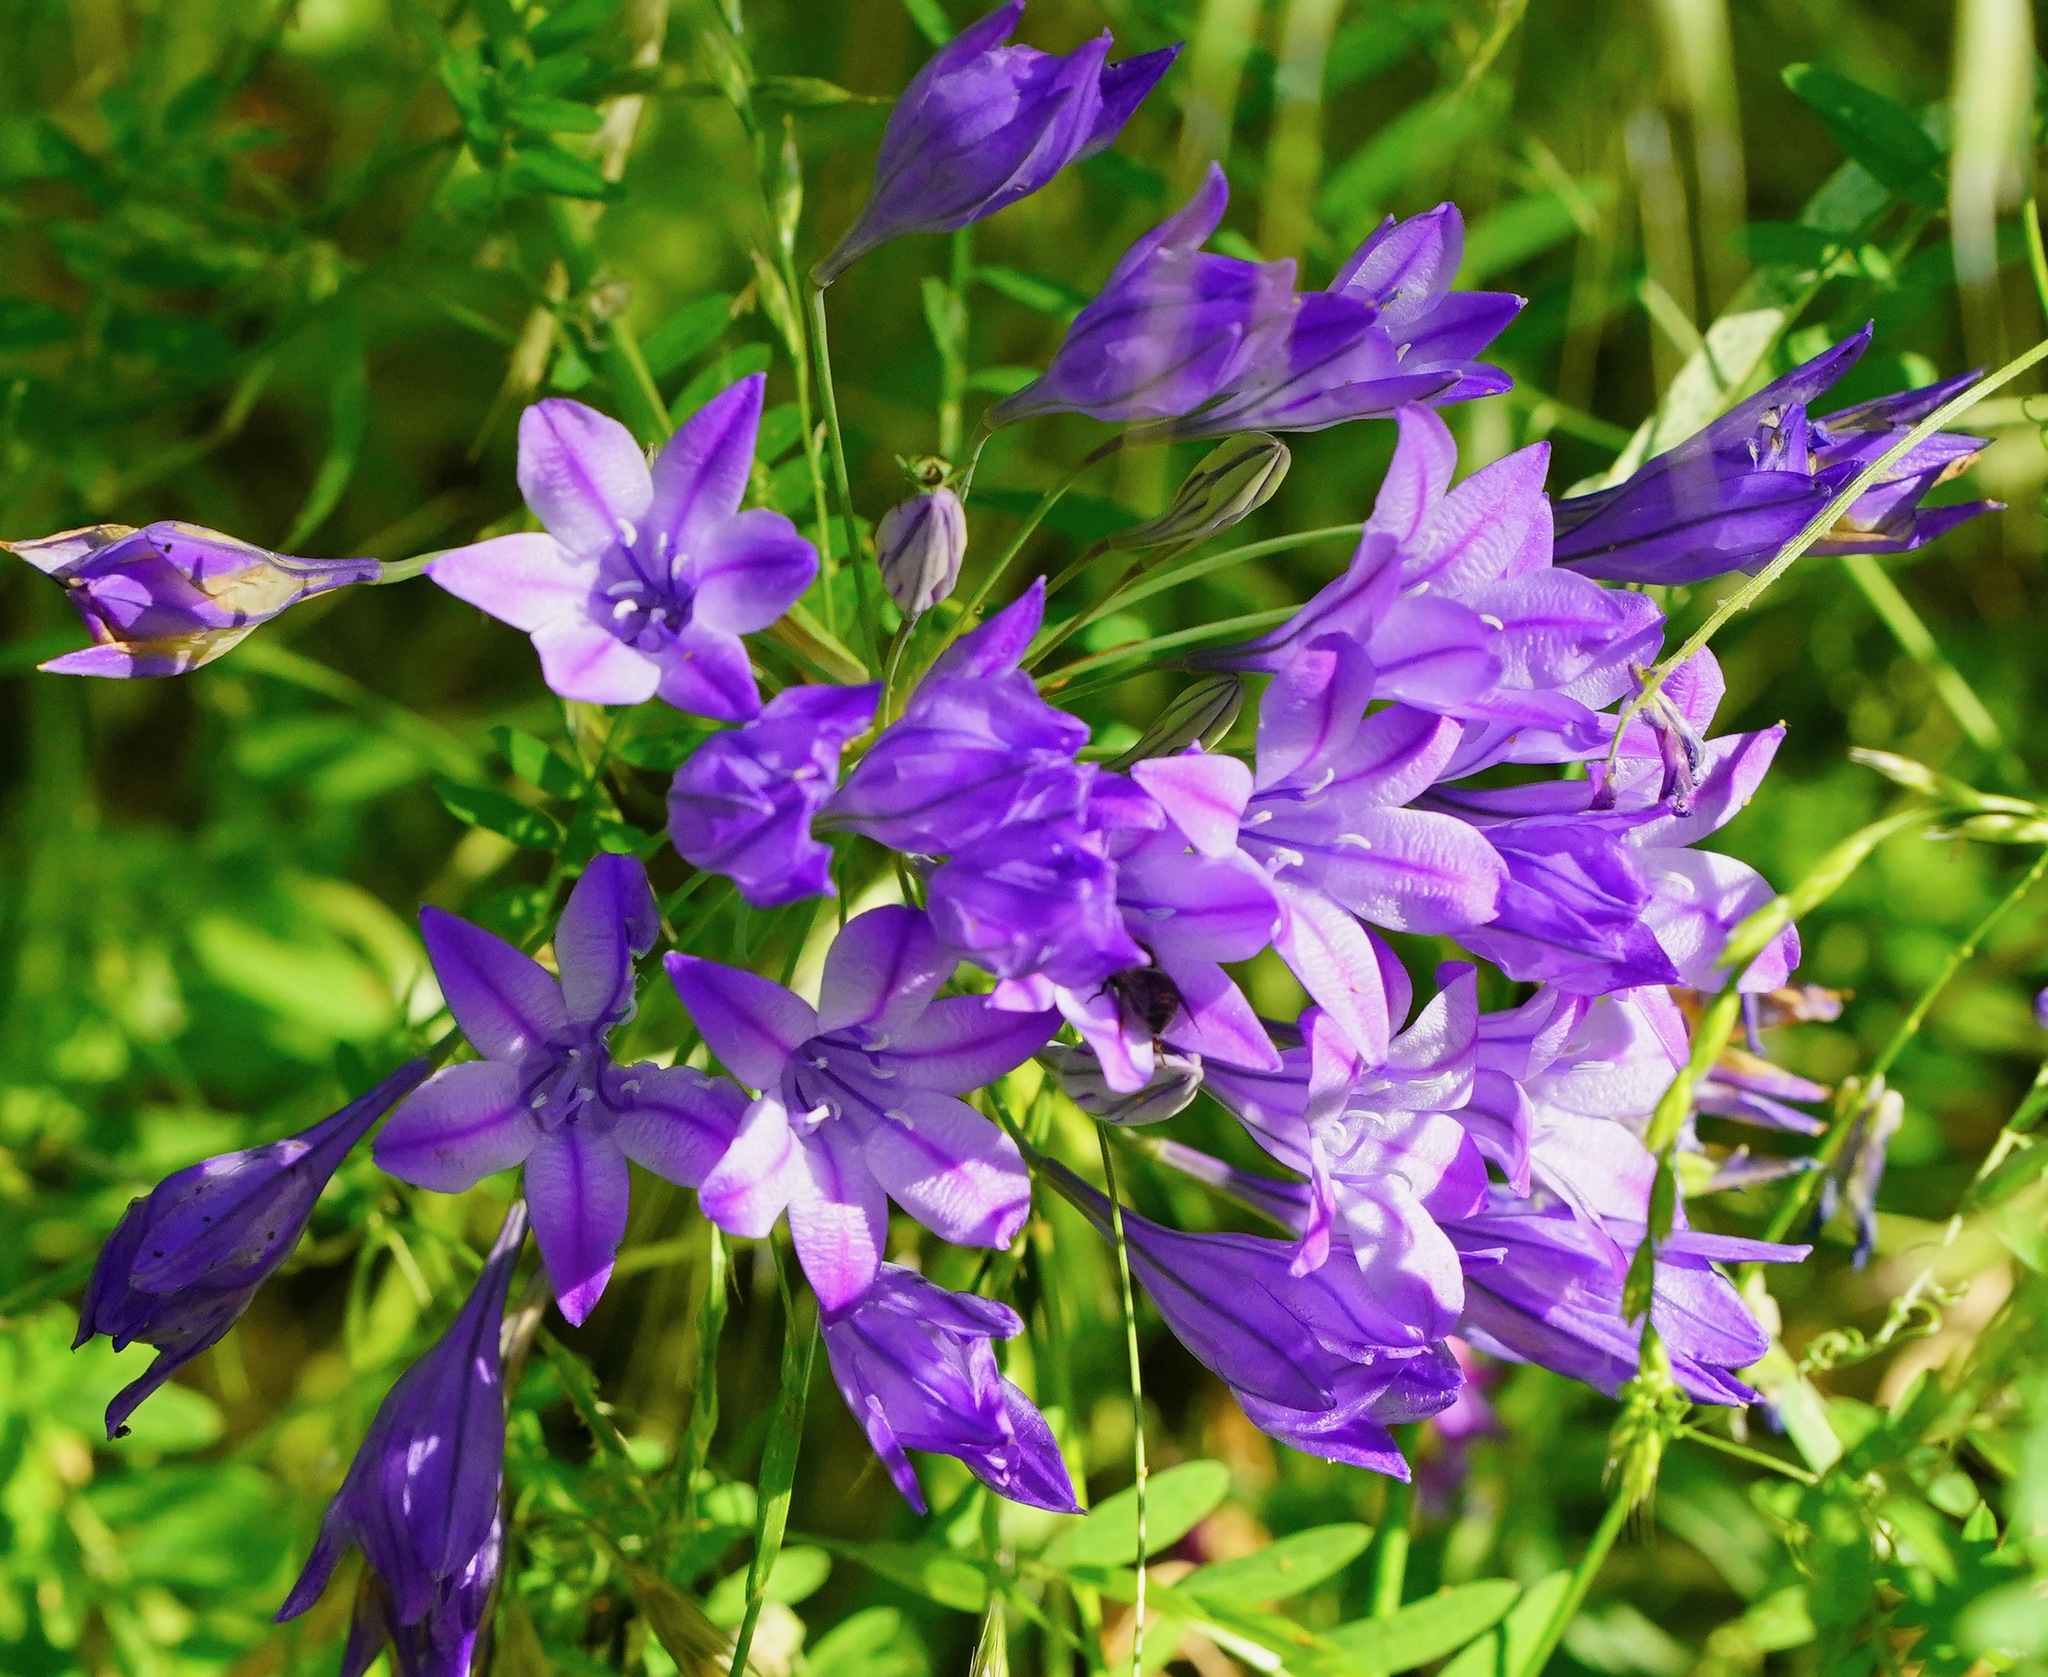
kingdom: Plantae
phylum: Tracheophyta
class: Liliopsida
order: Asparagales
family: Asparagaceae
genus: Triteleia
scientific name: Triteleia laxa
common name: Triplet-lily
